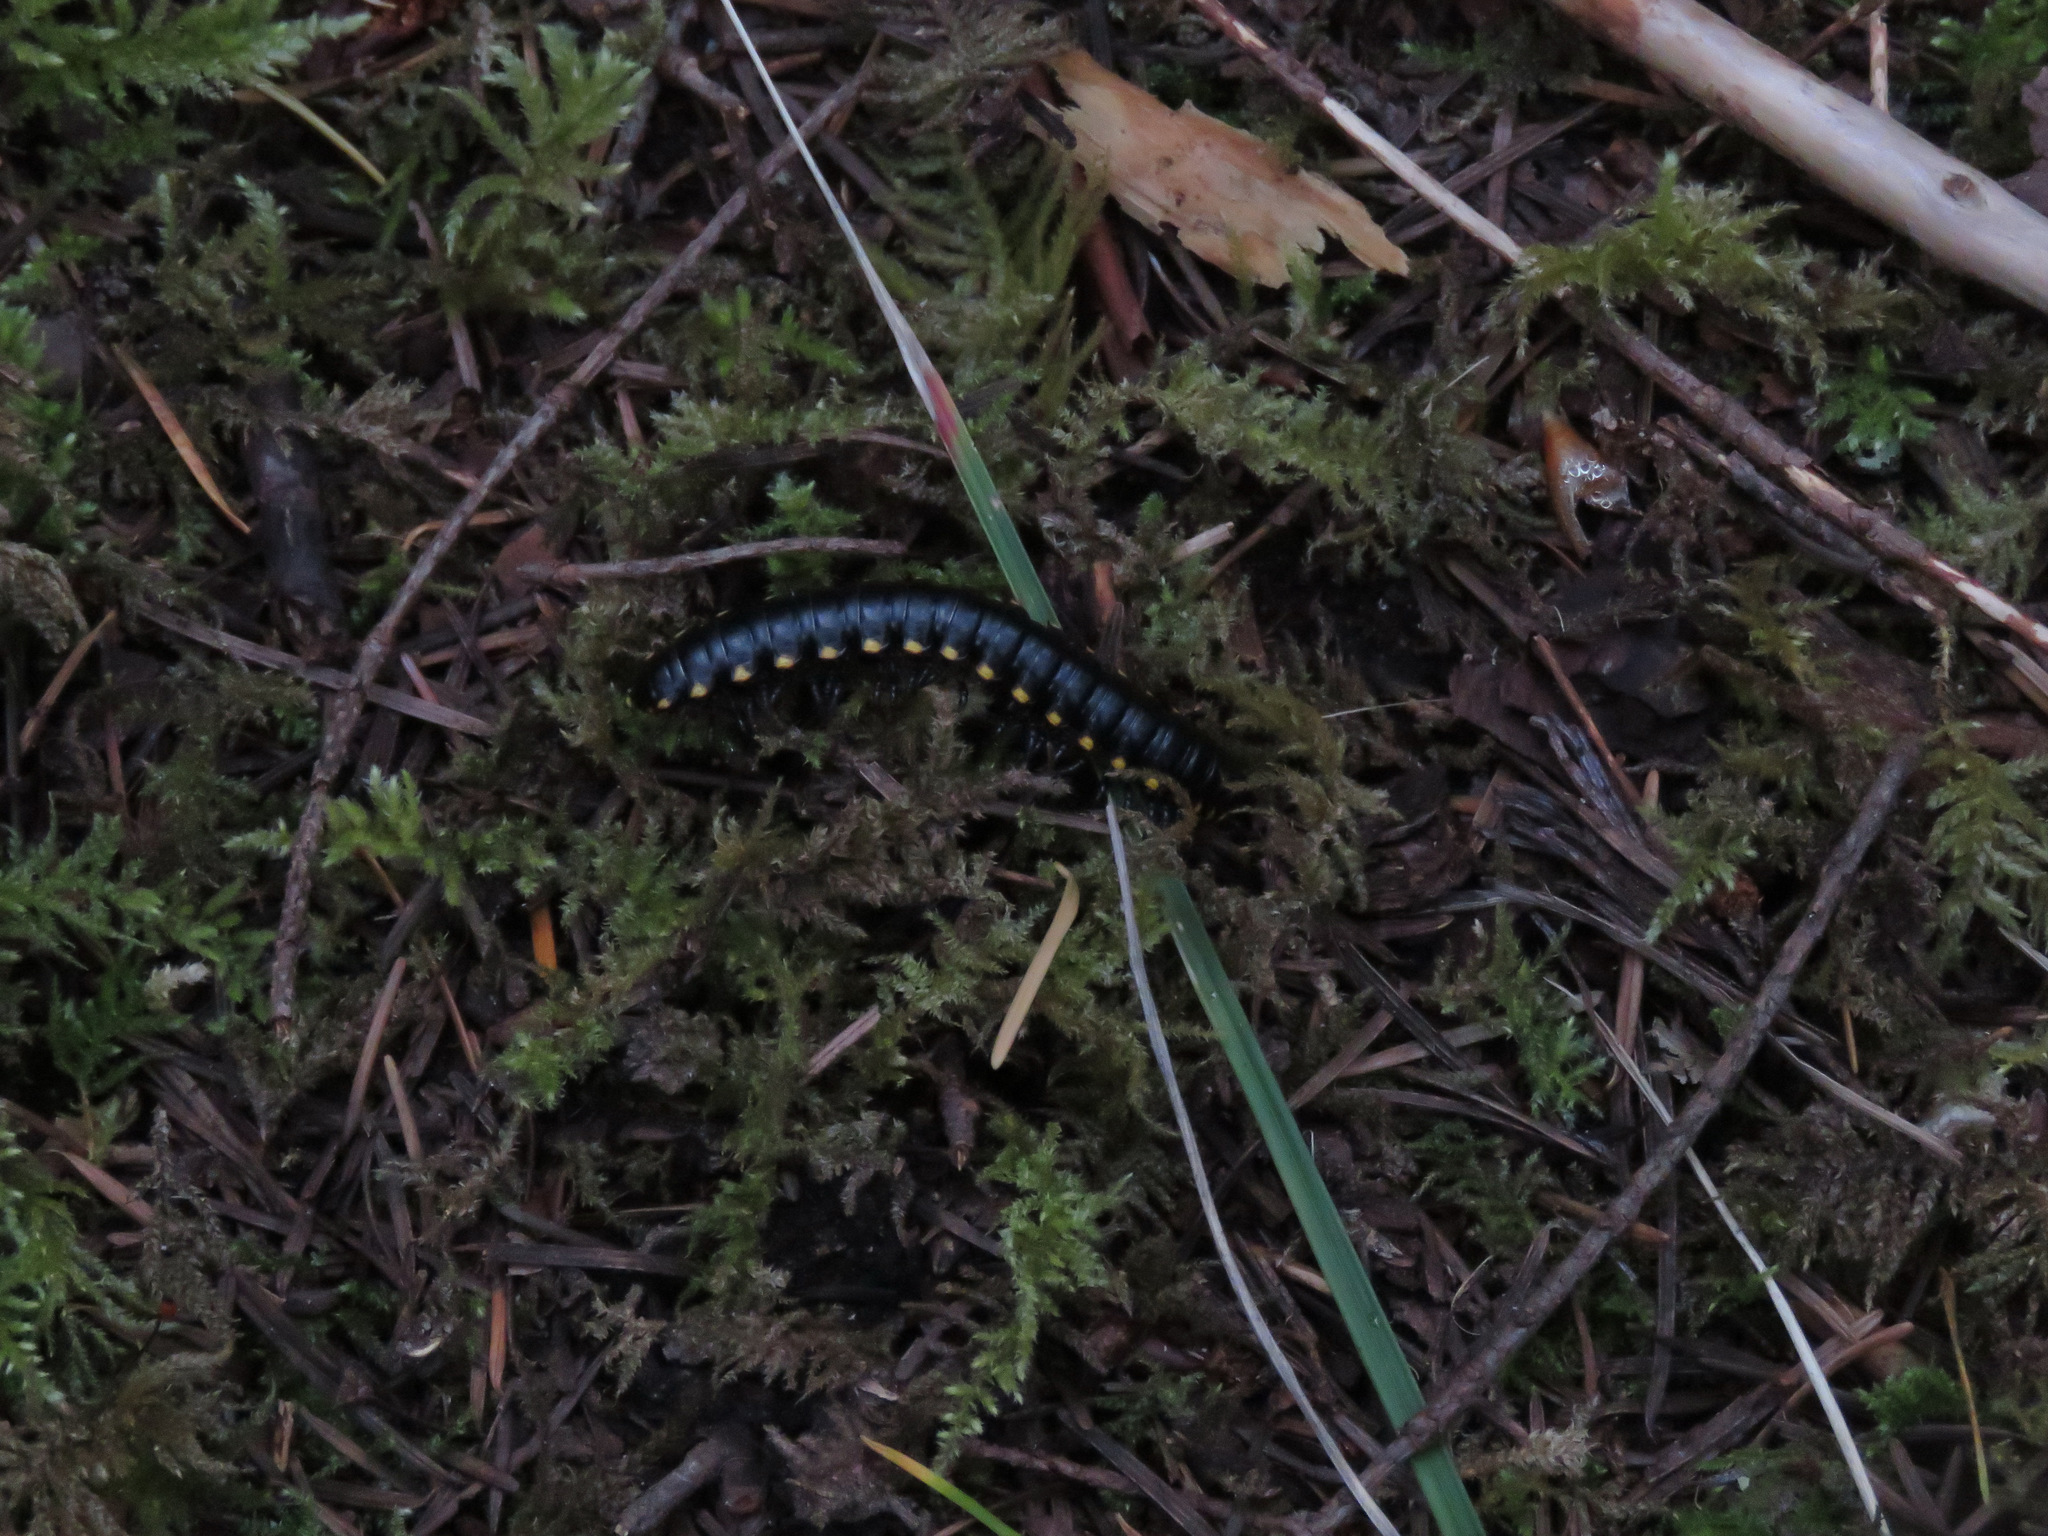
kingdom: Animalia
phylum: Arthropoda
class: Diplopoda
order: Polydesmida
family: Xystodesmidae
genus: Harpaphe
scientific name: Harpaphe haydeniana
